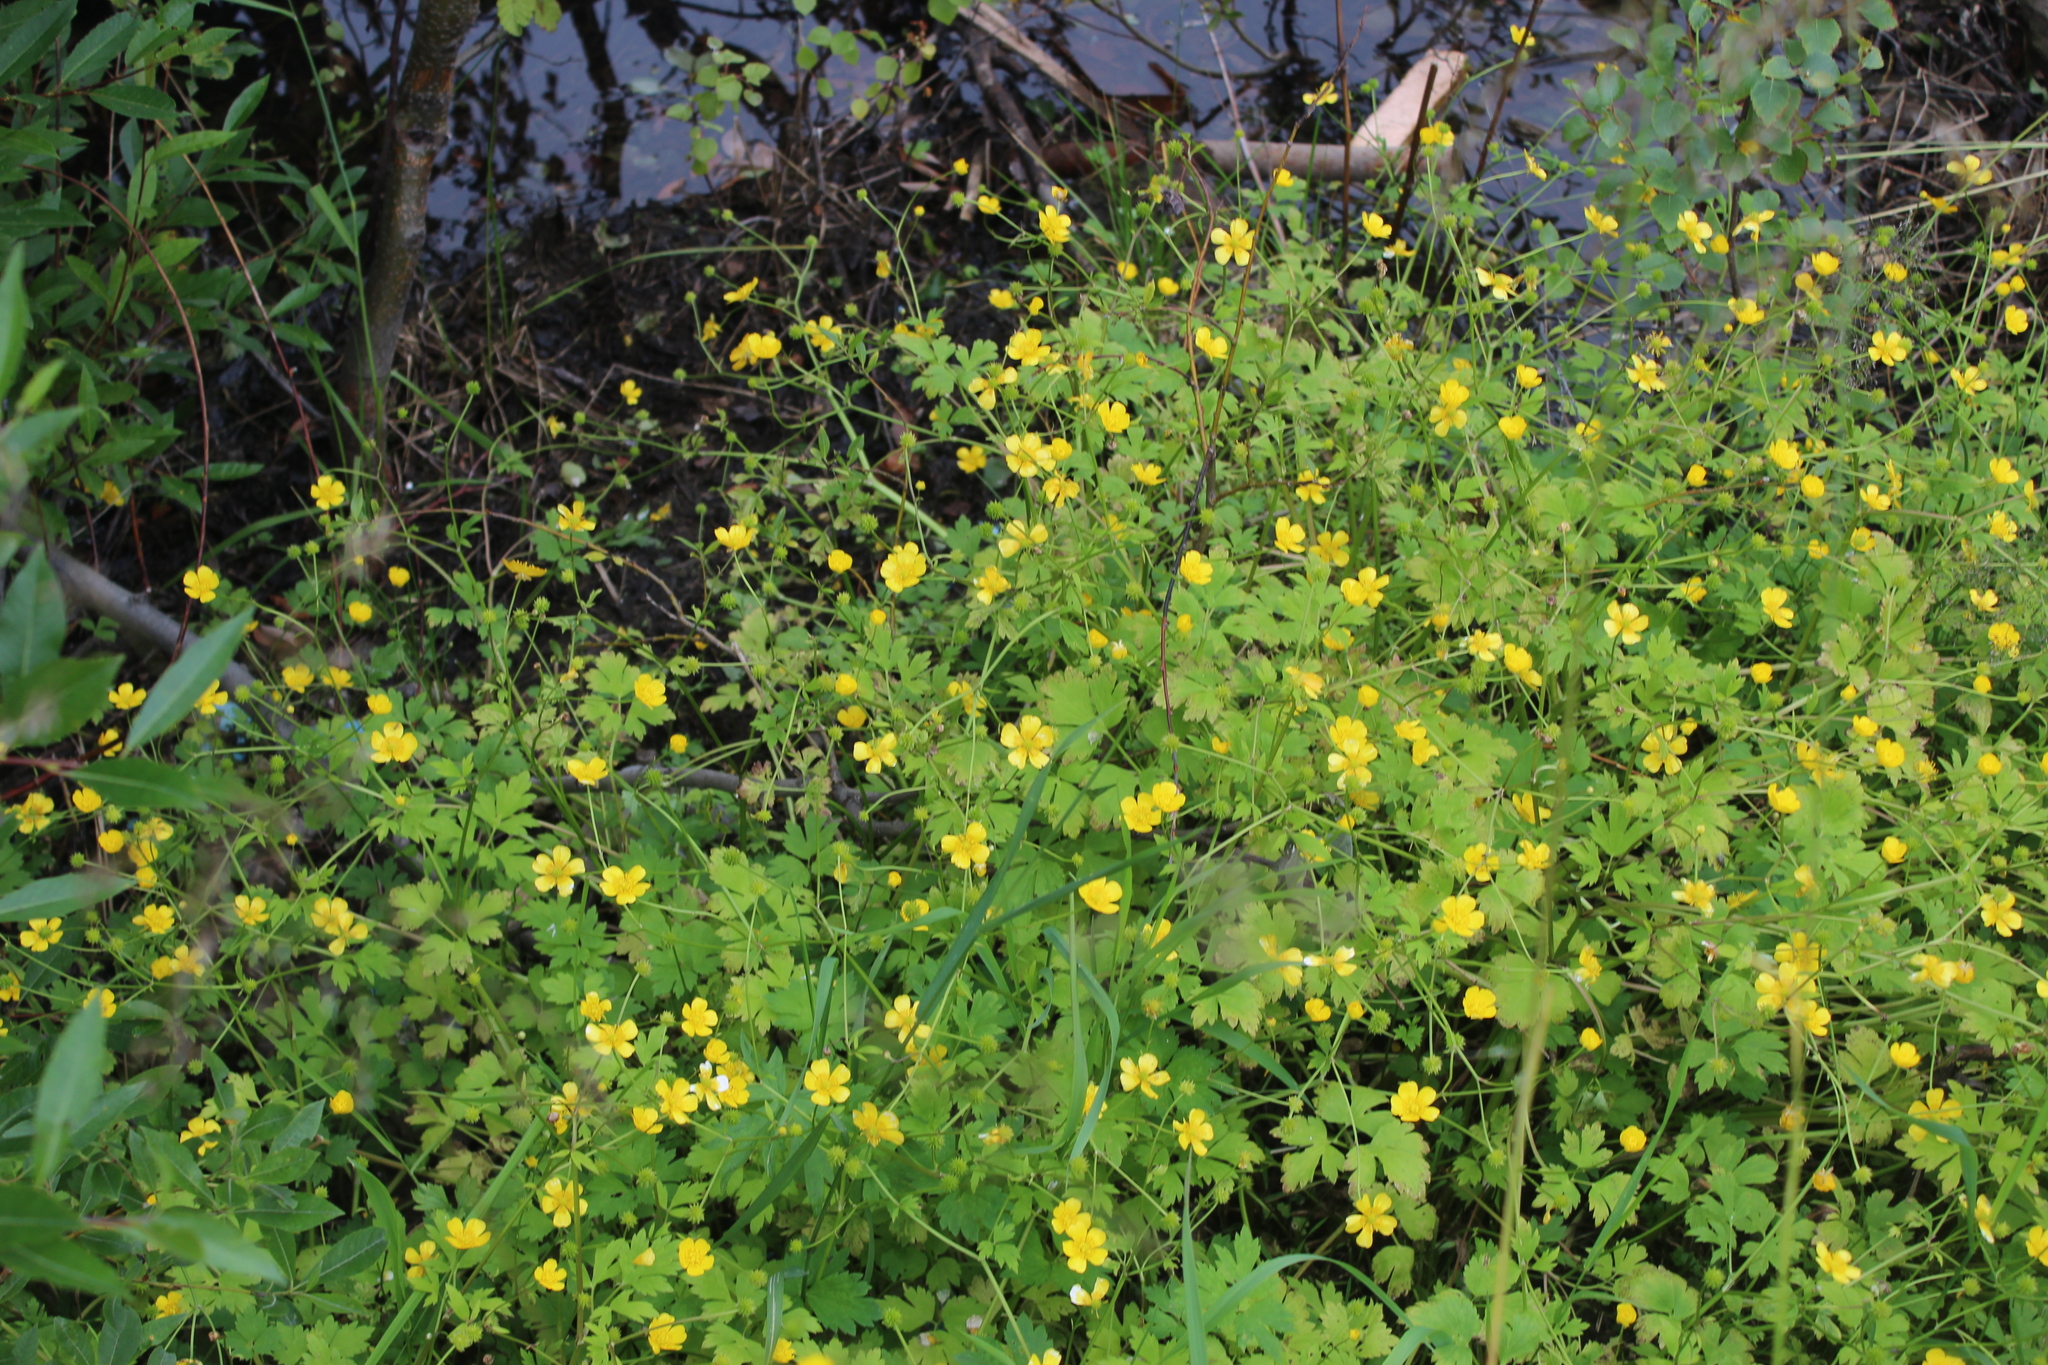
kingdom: Plantae
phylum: Tracheophyta
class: Magnoliopsida
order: Ranunculales
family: Ranunculaceae
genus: Ranunculus
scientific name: Ranunculus repens
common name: Creeping buttercup
